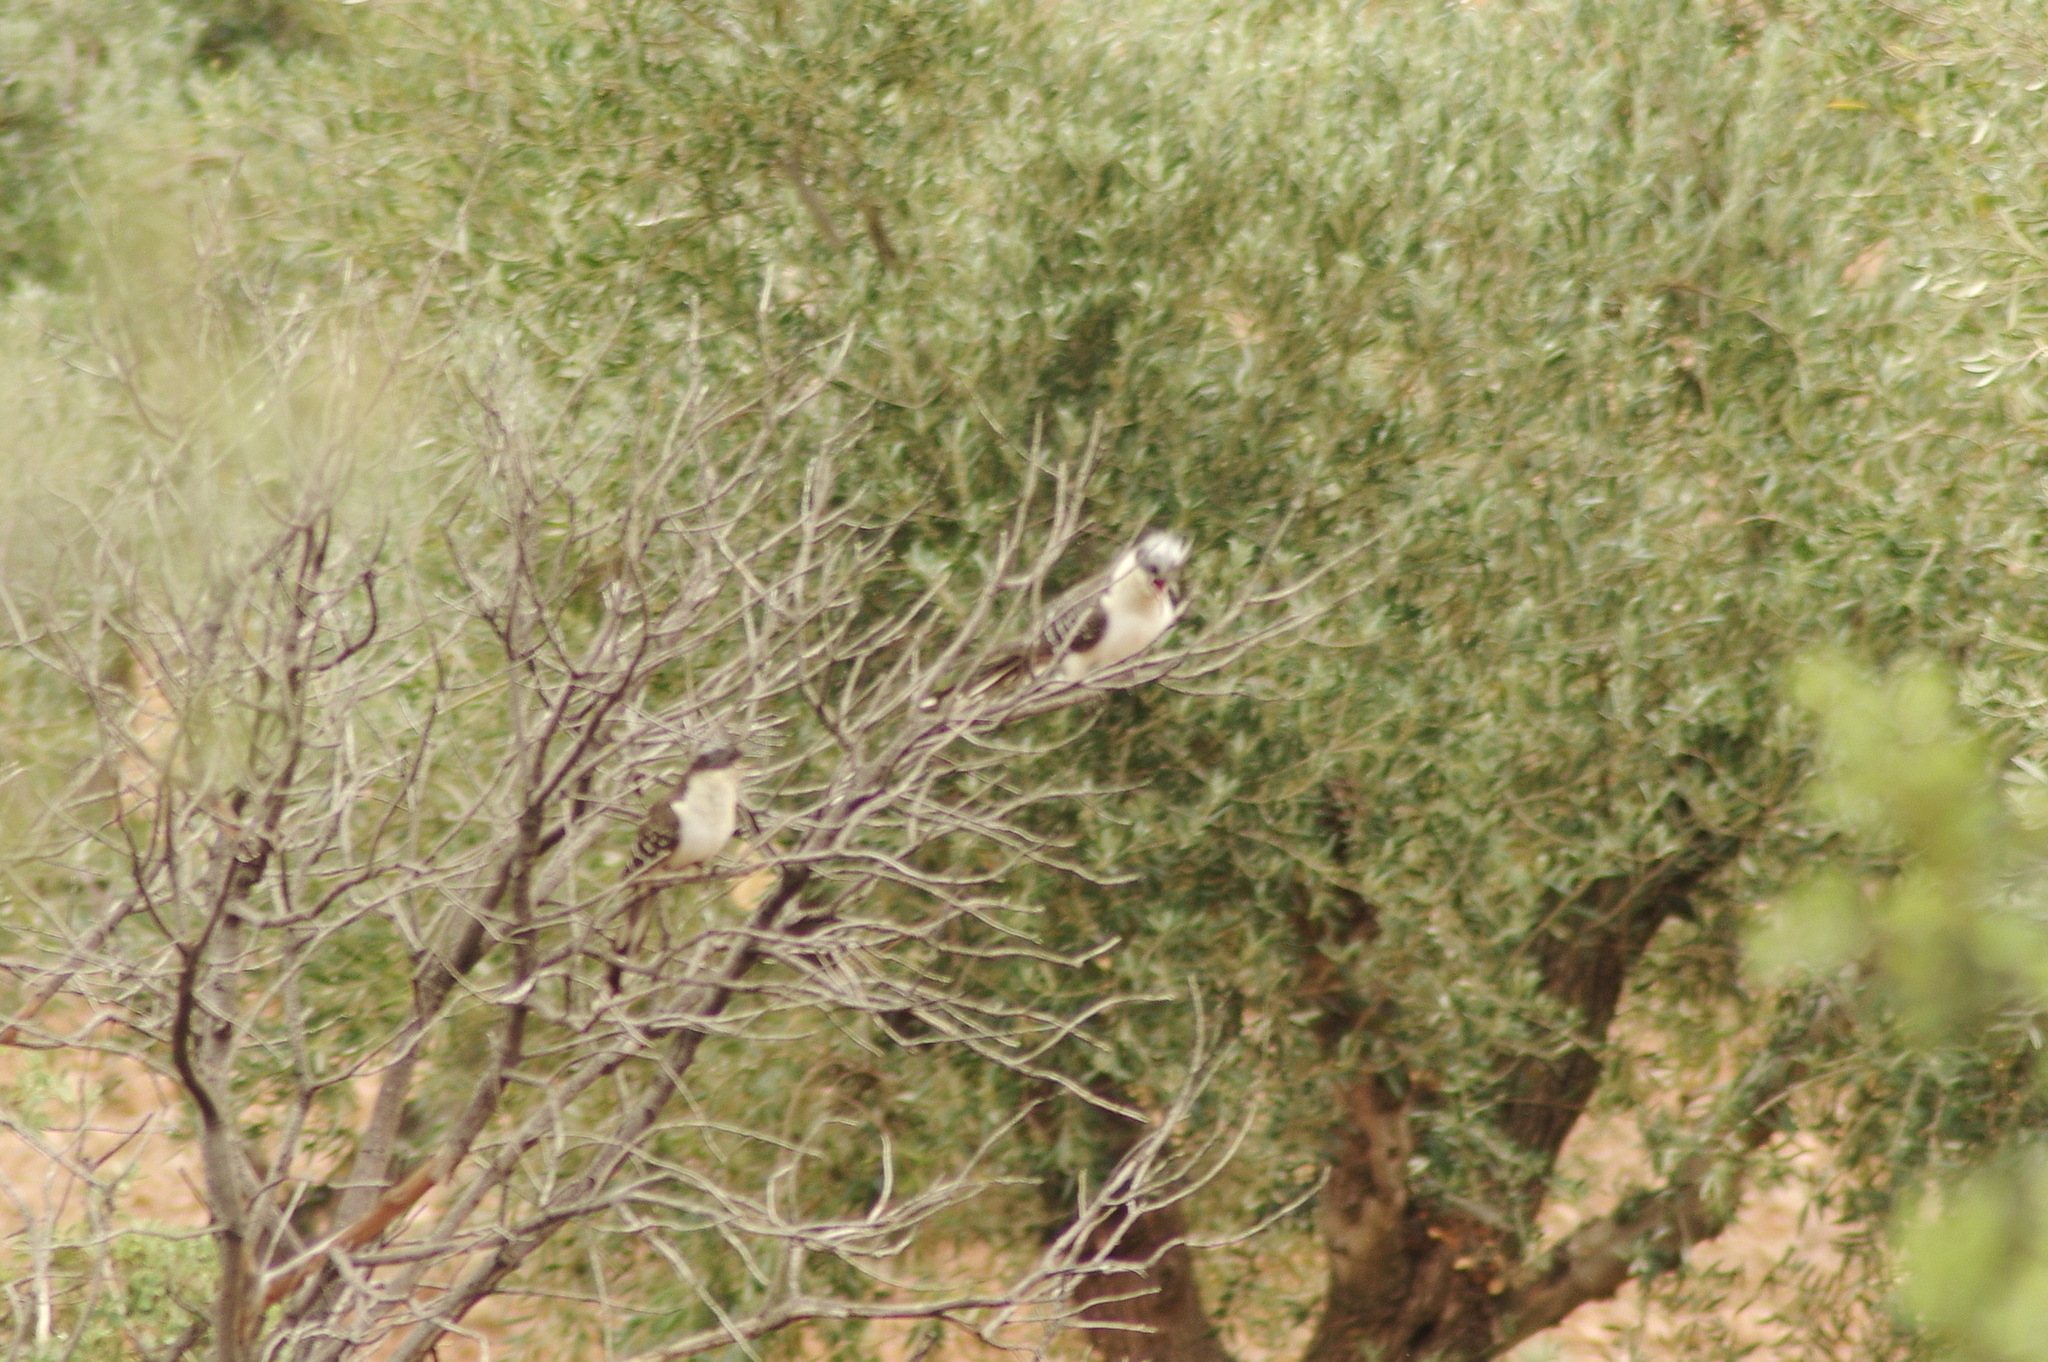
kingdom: Animalia
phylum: Chordata
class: Aves
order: Cuculiformes
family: Cuculidae
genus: Clamator
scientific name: Clamator glandarius
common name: Great spotted cuckoo
